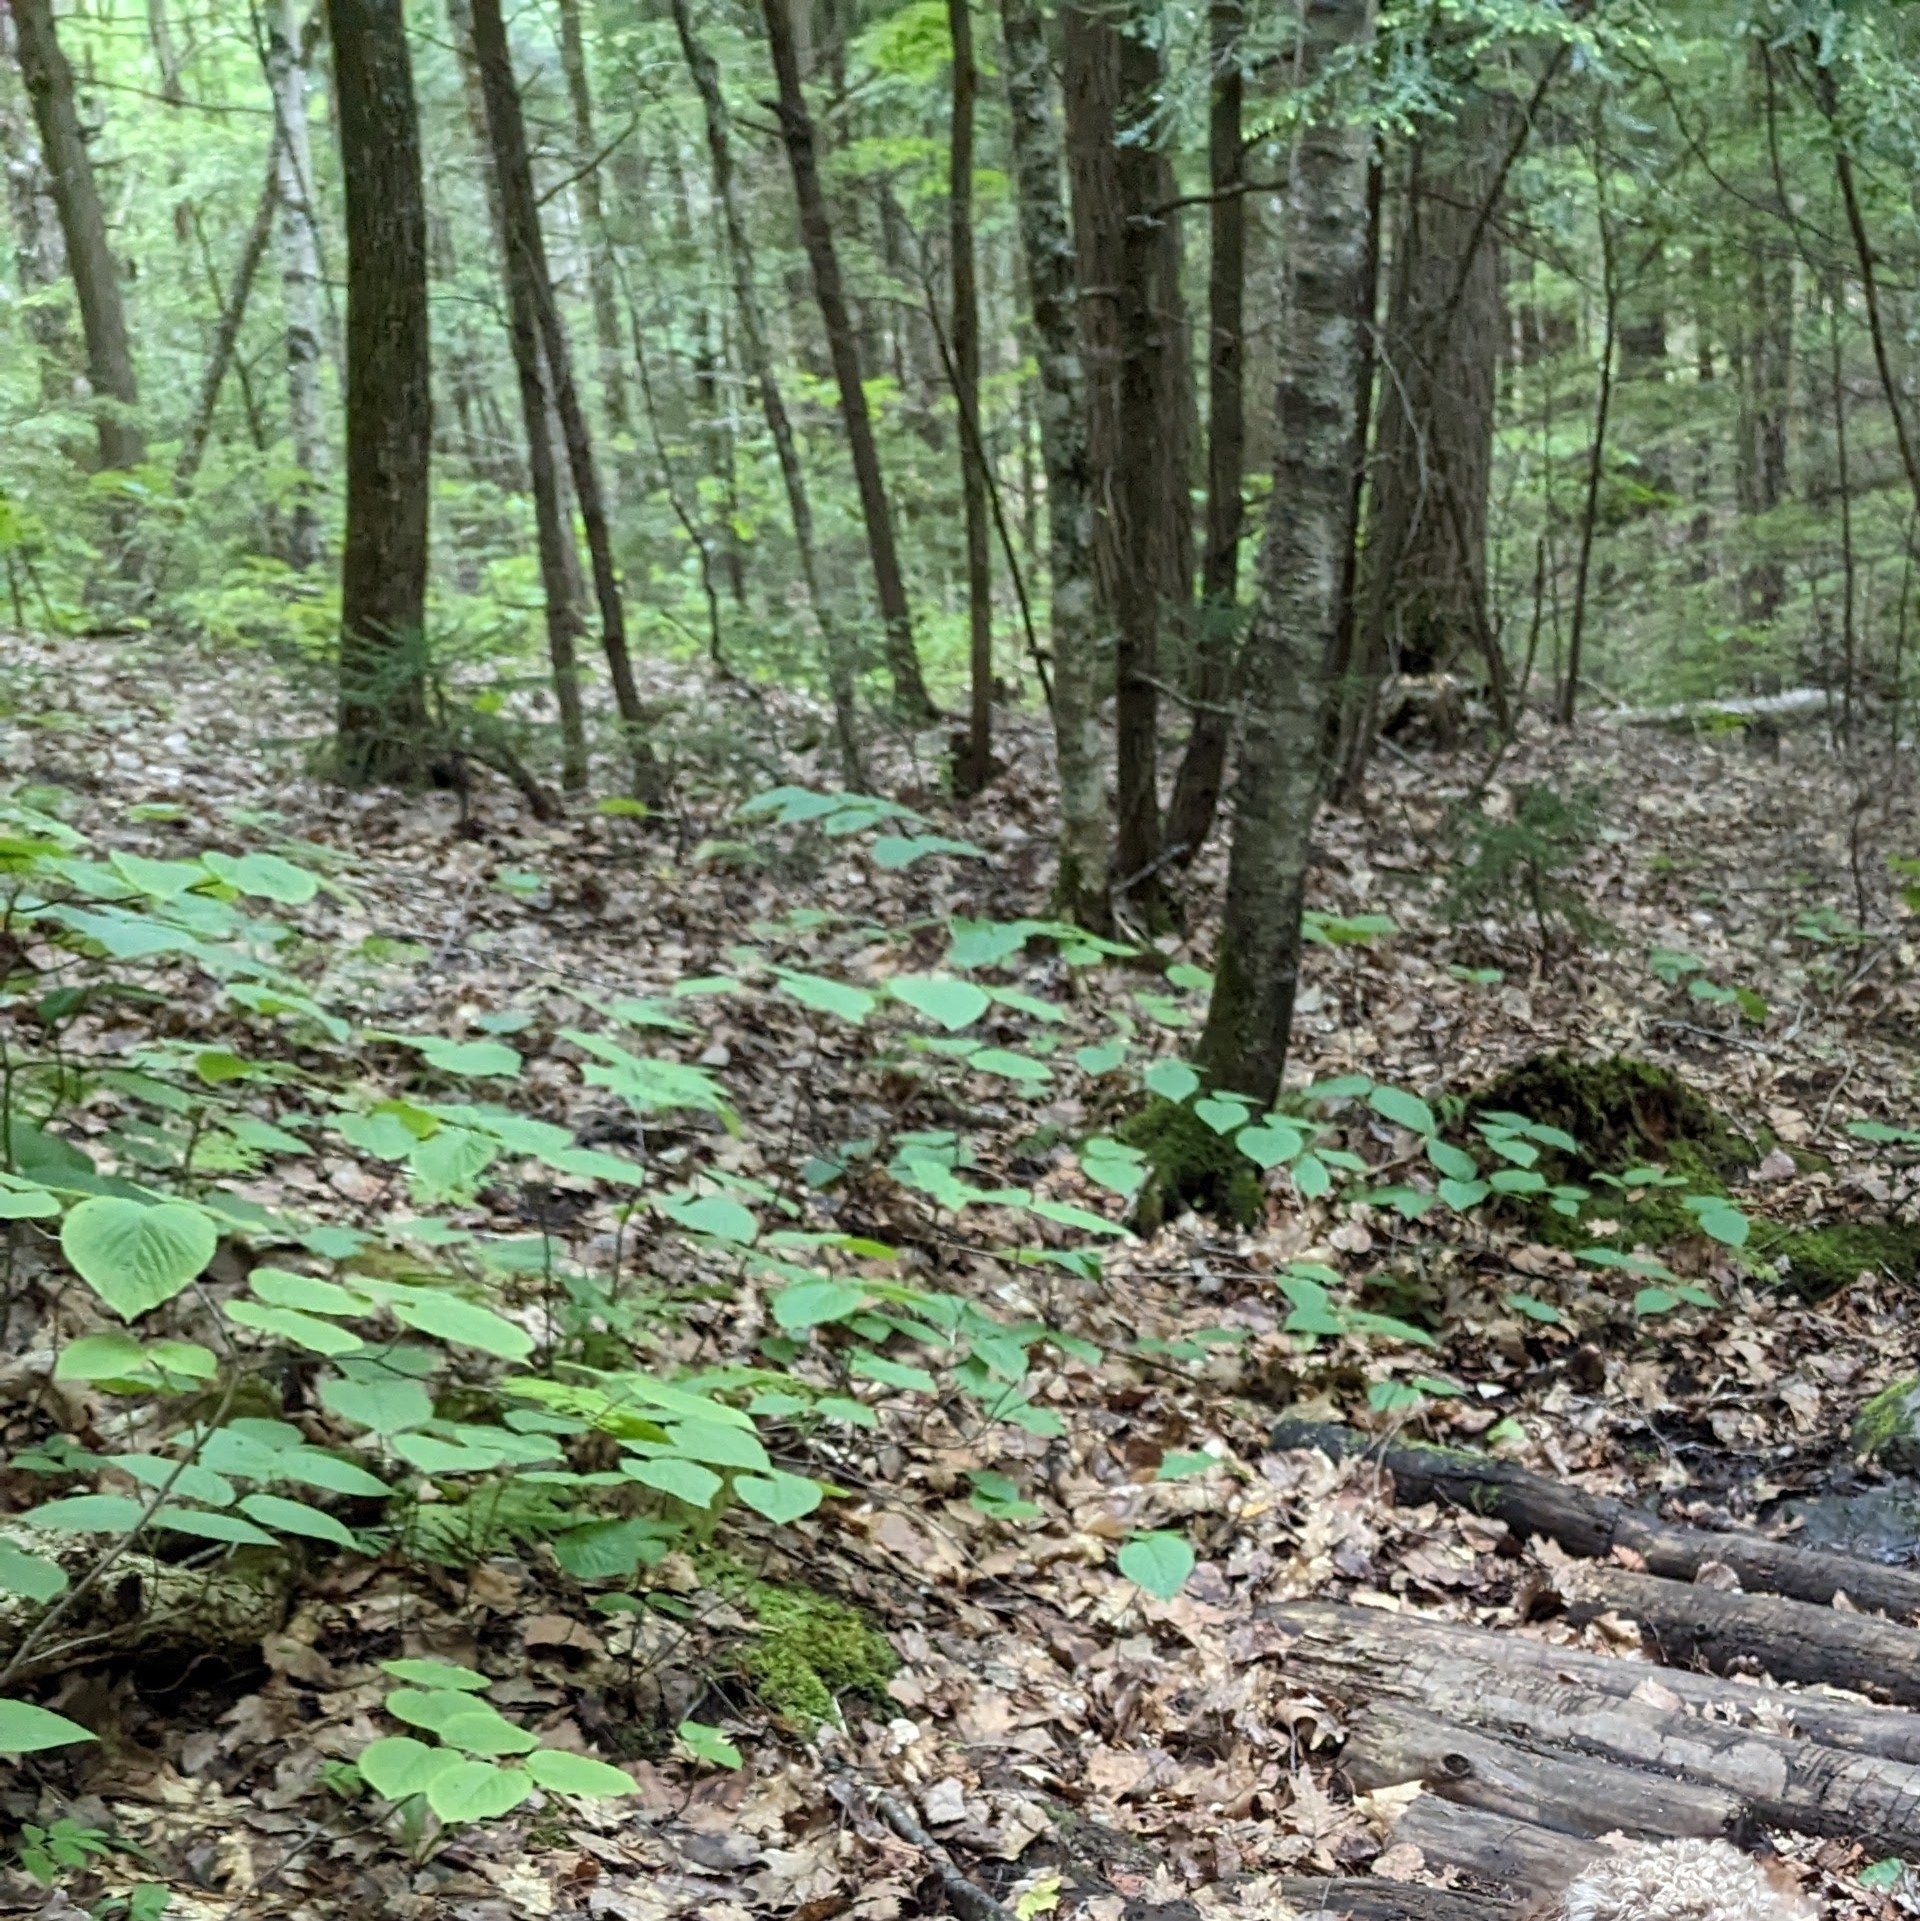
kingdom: Plantae
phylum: Tracheophyta
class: Magnoliopsida
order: Dipsacales
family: Viburnaceae
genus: Viburnum
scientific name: Viburnum lantanoides
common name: Hobblebush
